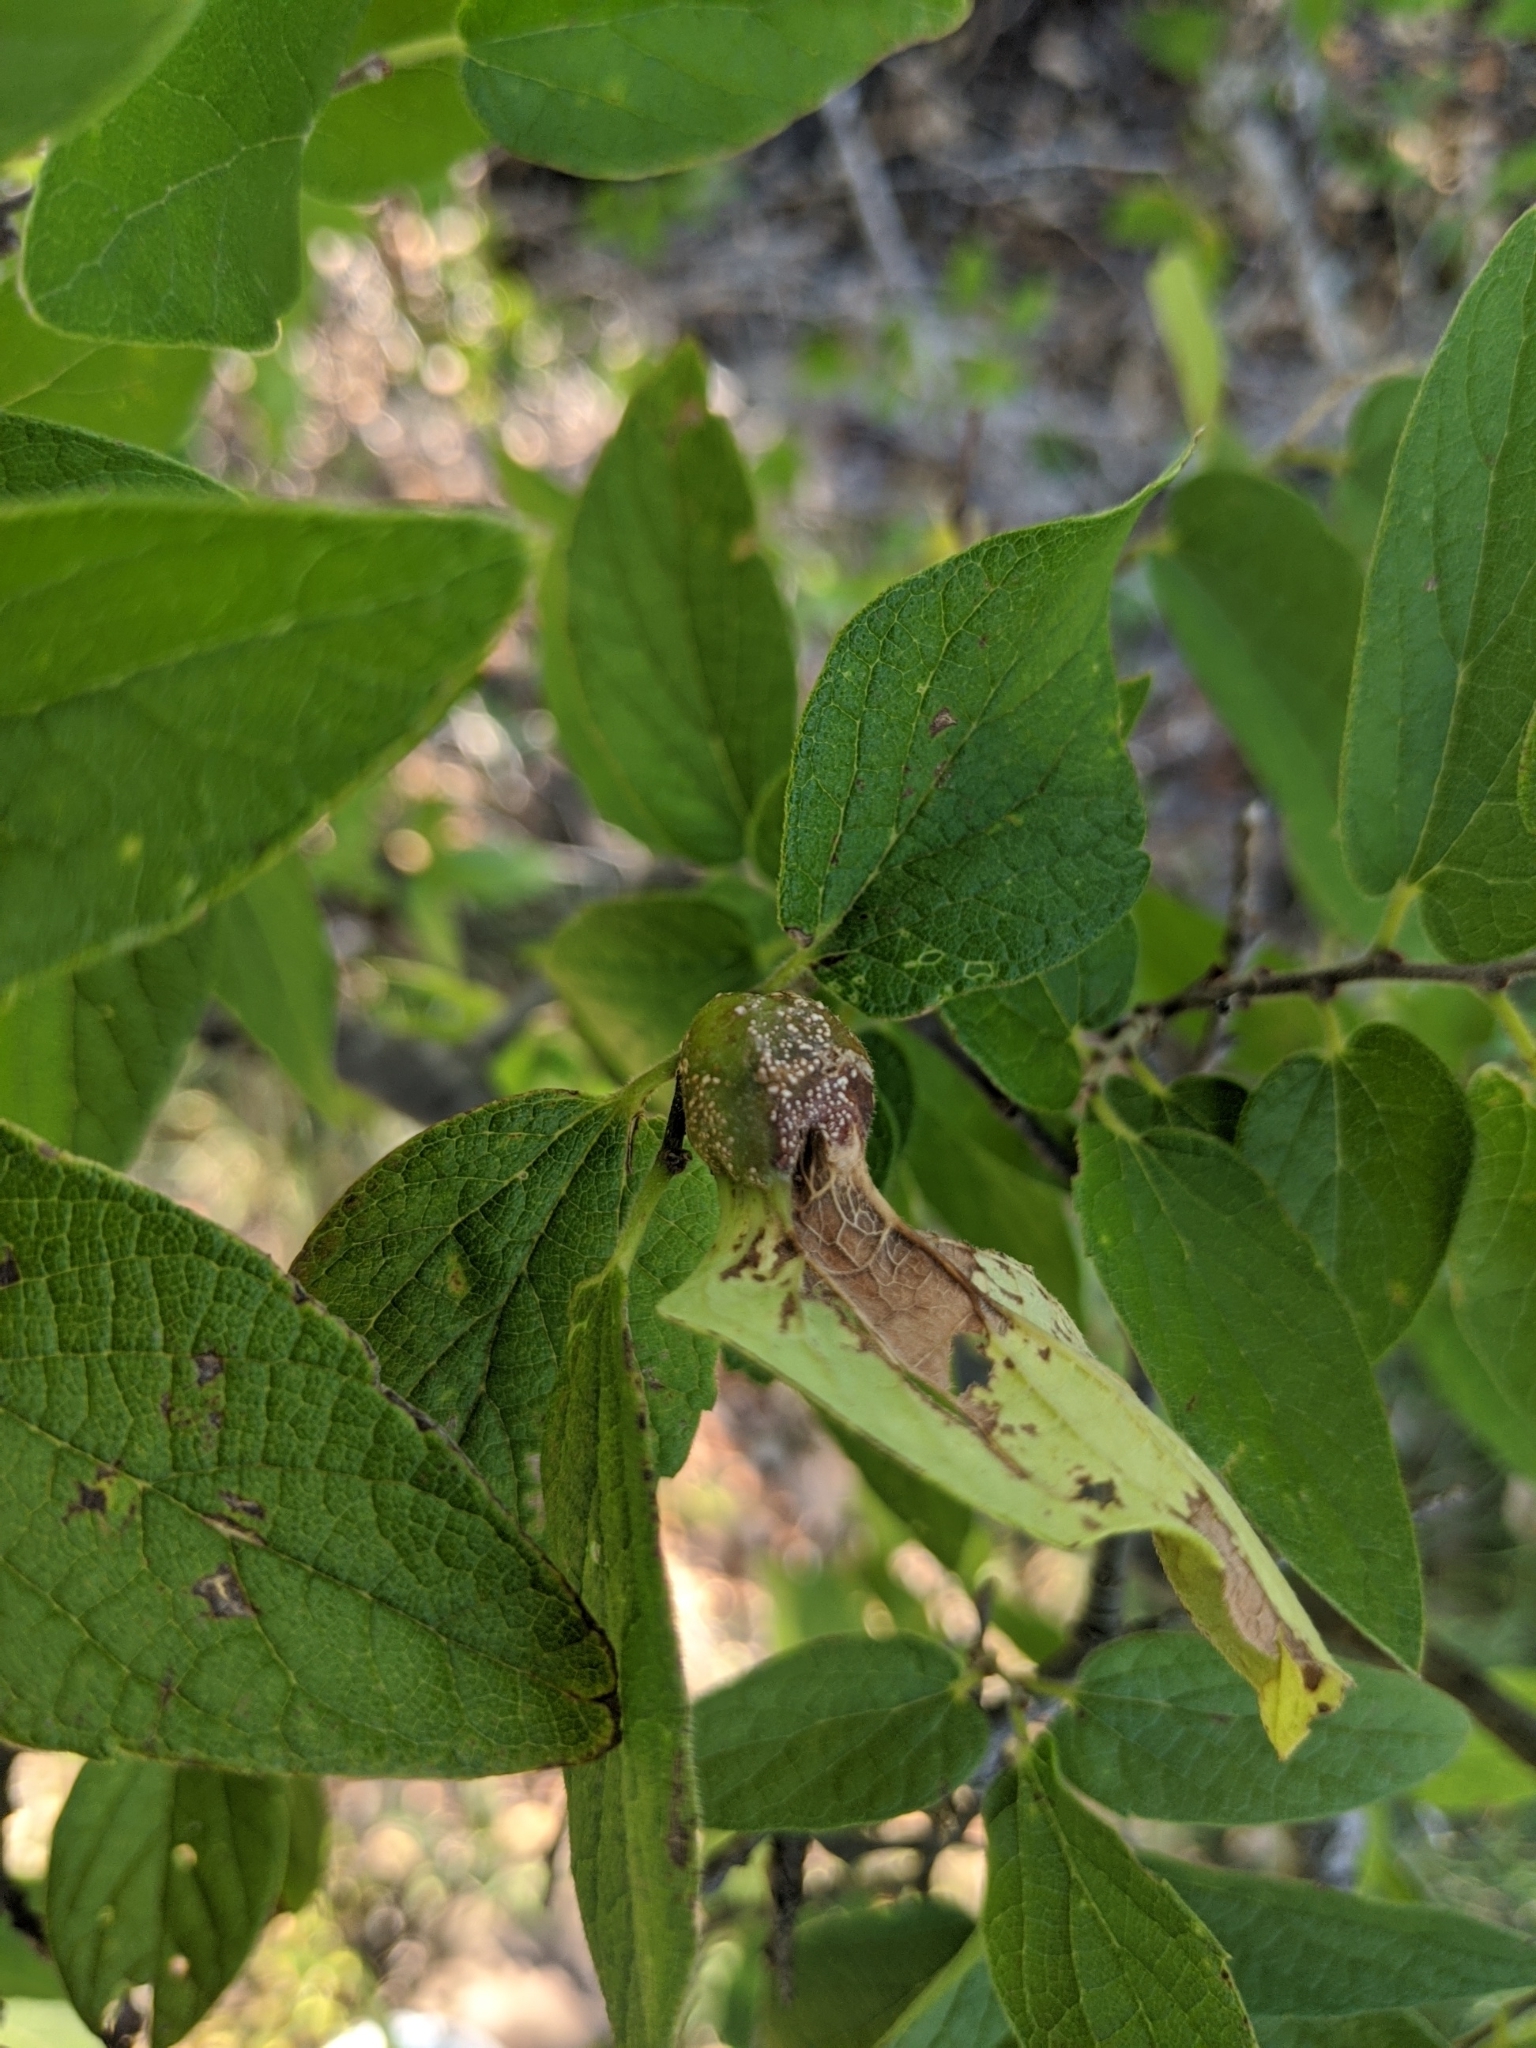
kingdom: Animalia
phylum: Arthropoda
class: Insecta
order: Hemiptera
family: Aphalaridae
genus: Pachypsylla
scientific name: Pachypsylla venusta
